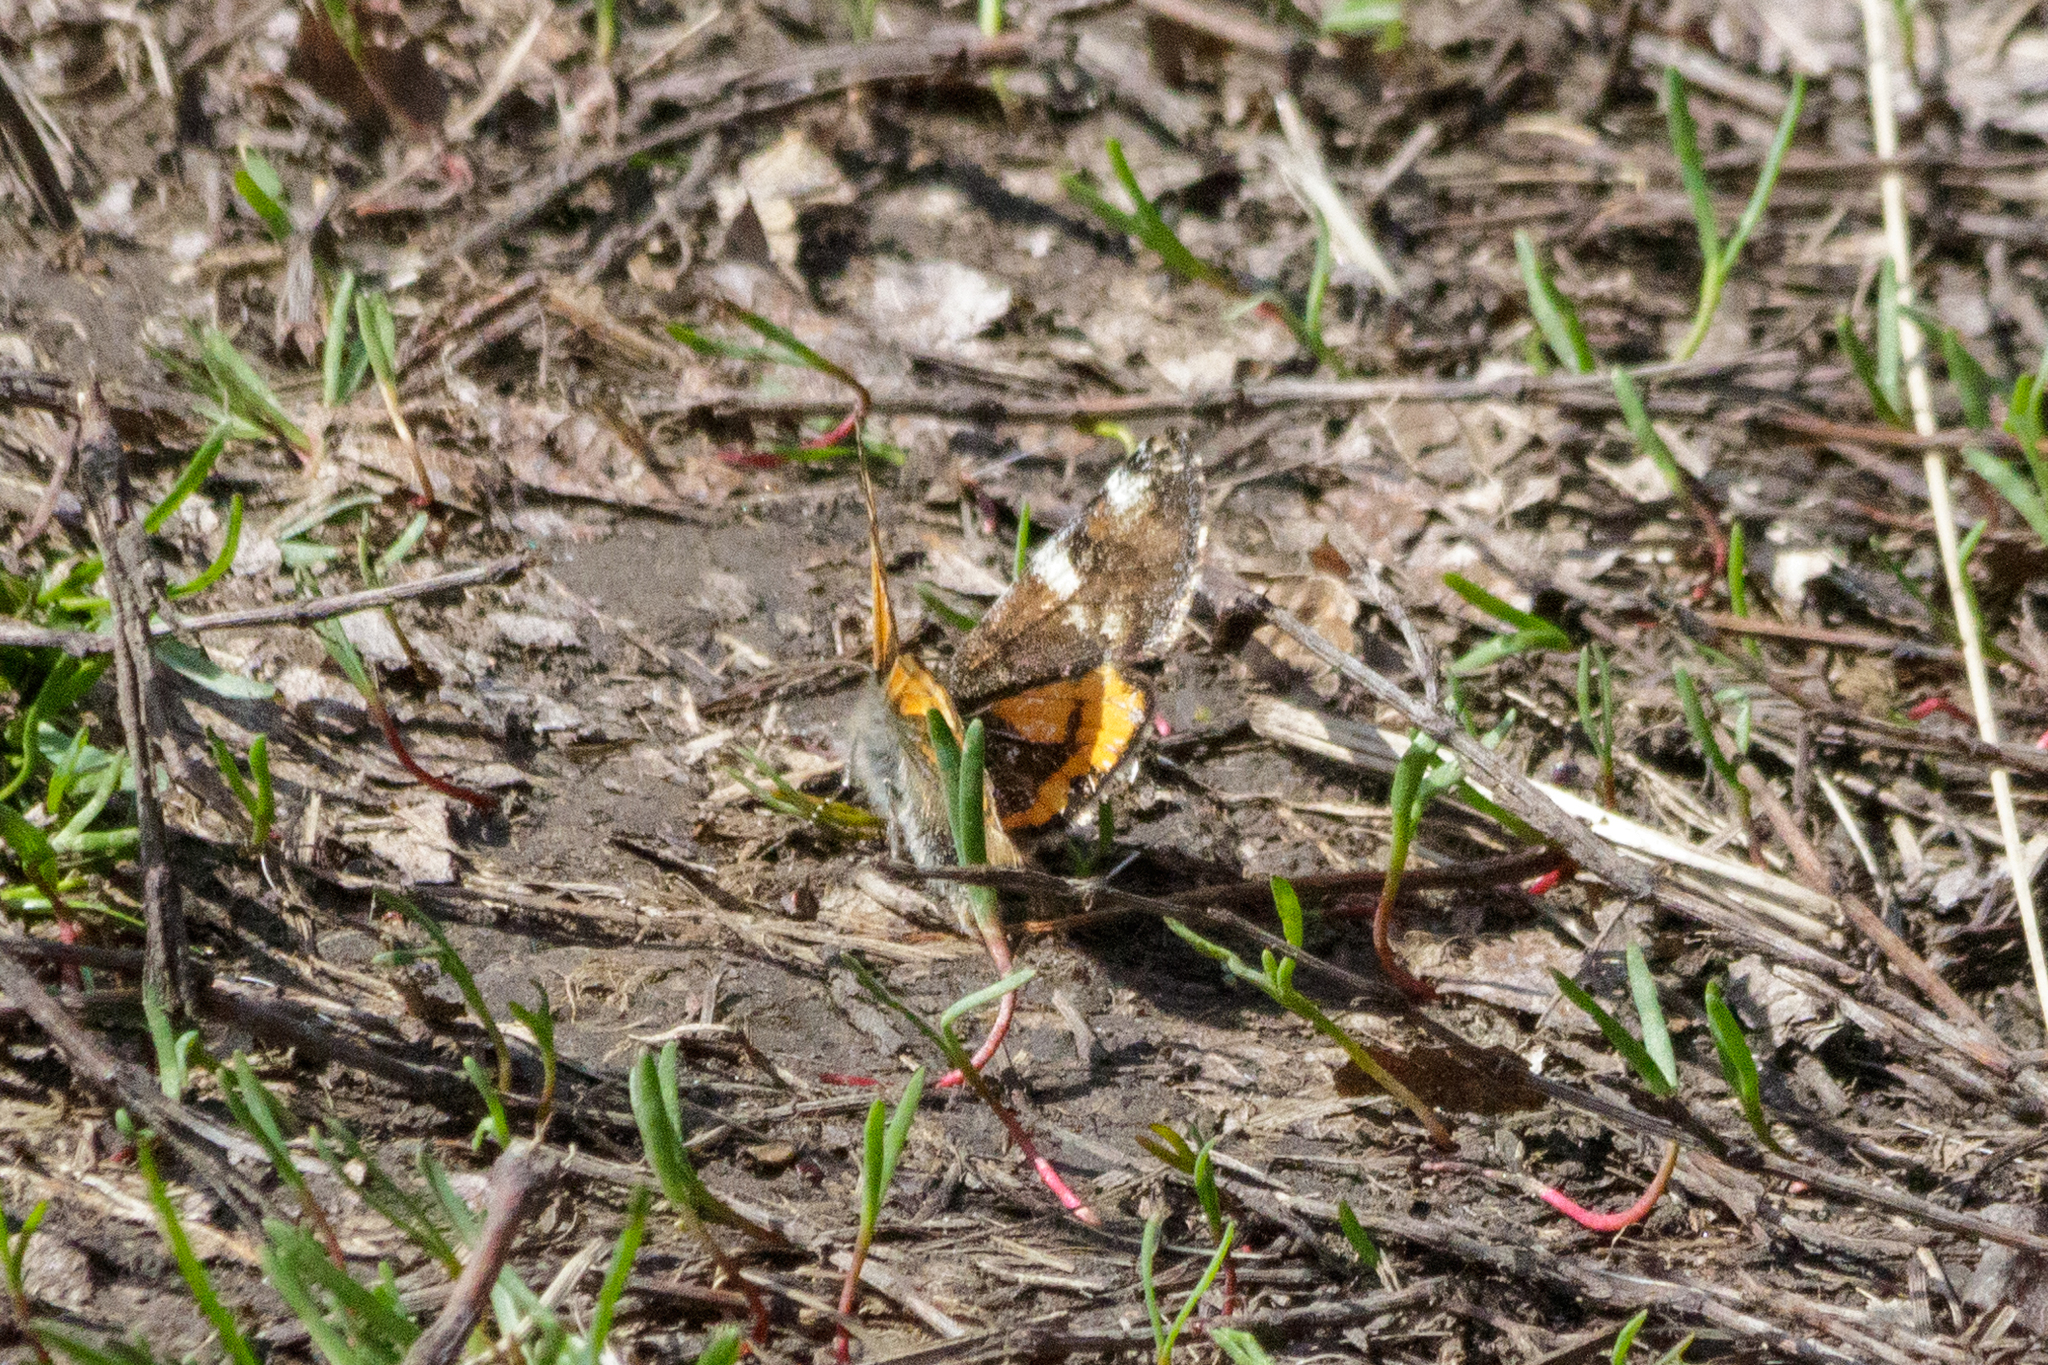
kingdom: Animalia
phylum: Arthropoda
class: Insecta
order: Lepidoptera
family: Geometridae
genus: Archiearis
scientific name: Archiearis parthenias
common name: Orange underwing
